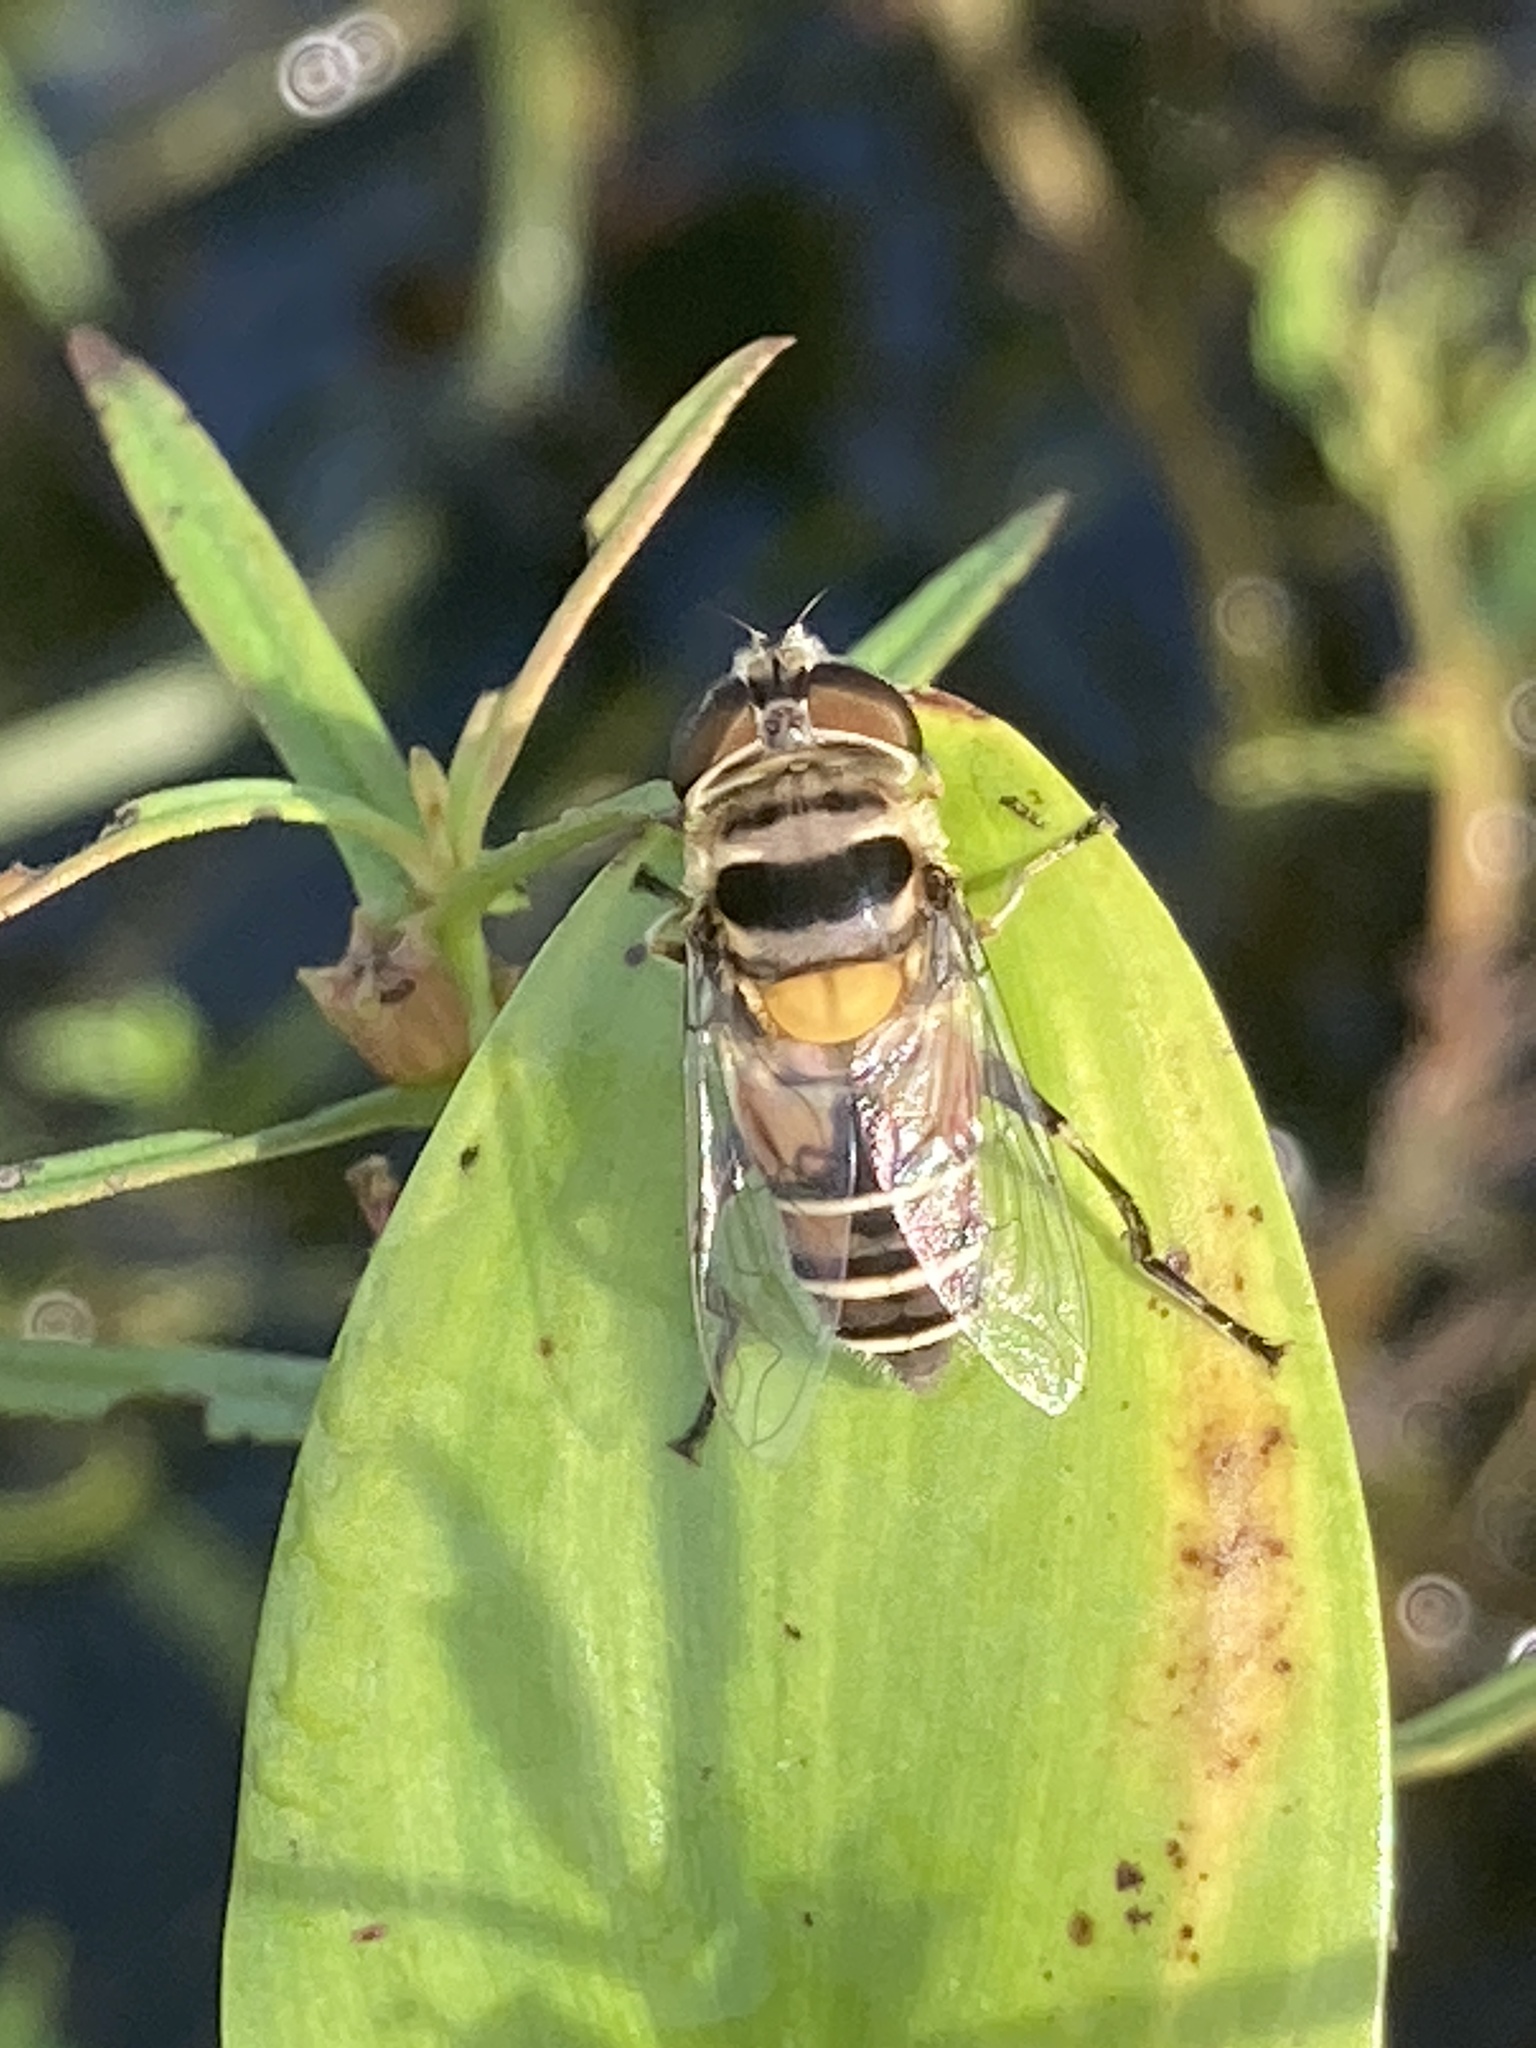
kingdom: Animalia
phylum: Arthropoda
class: Insecta
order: Diptera
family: Syrphidae
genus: Palpada
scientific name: Palpada agrorum
